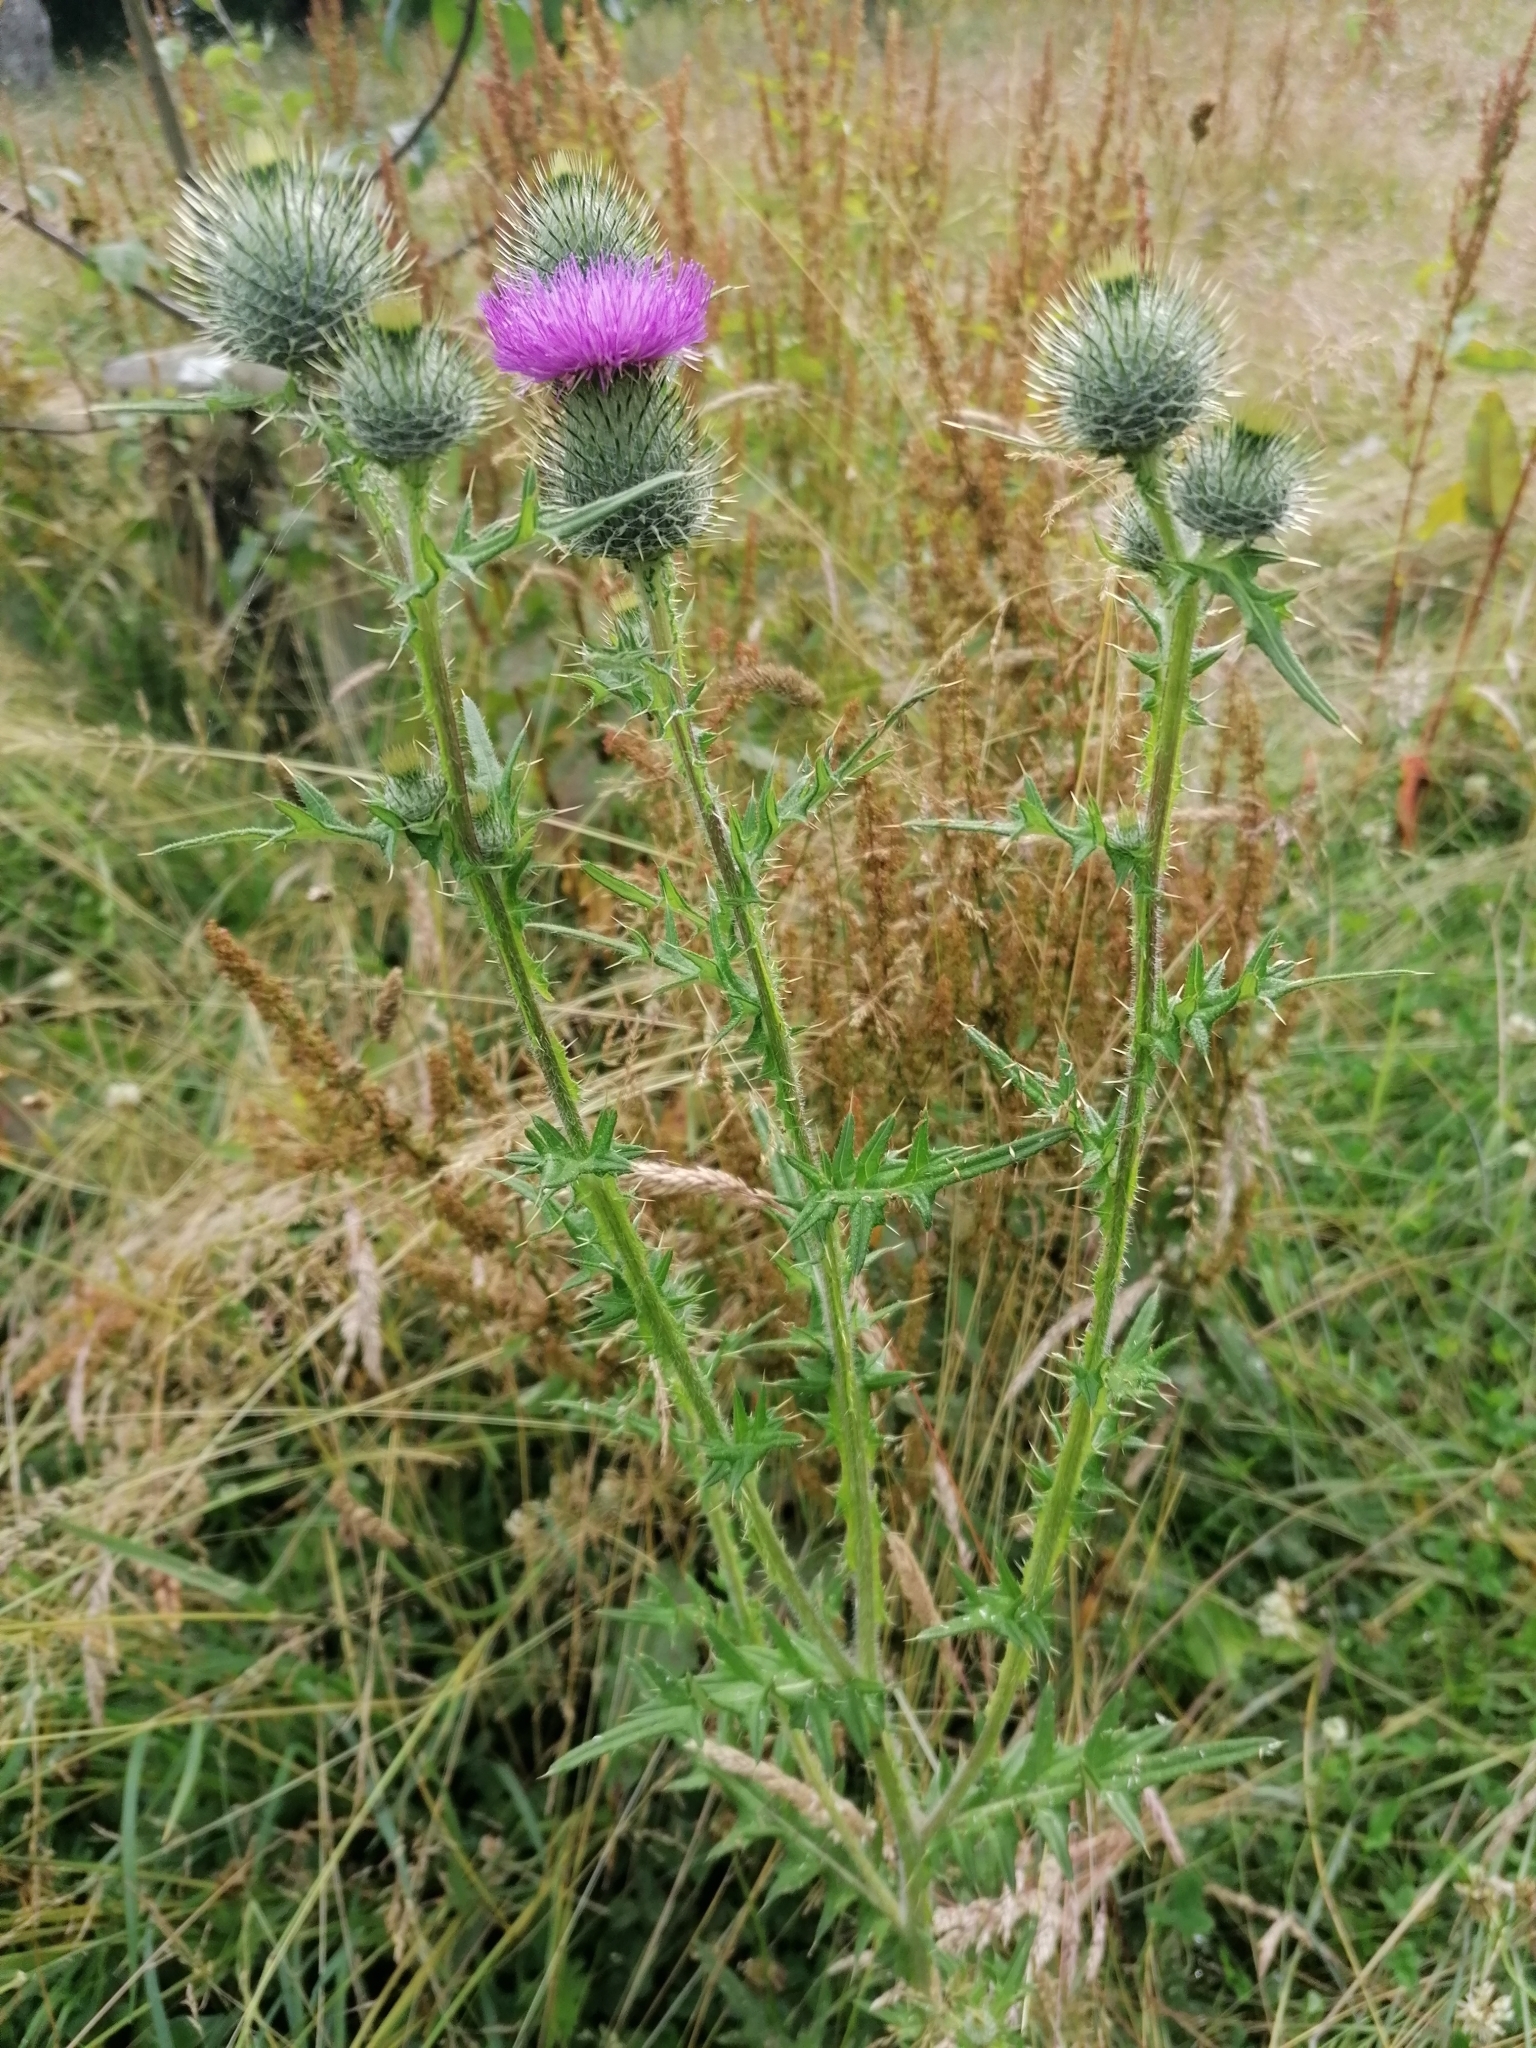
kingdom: Plantae
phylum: Tracheophyta
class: Magnoliopsida
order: Asterales
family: Asteraceae
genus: Cirsium
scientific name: Cirsium vulgare
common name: Bull thistle
